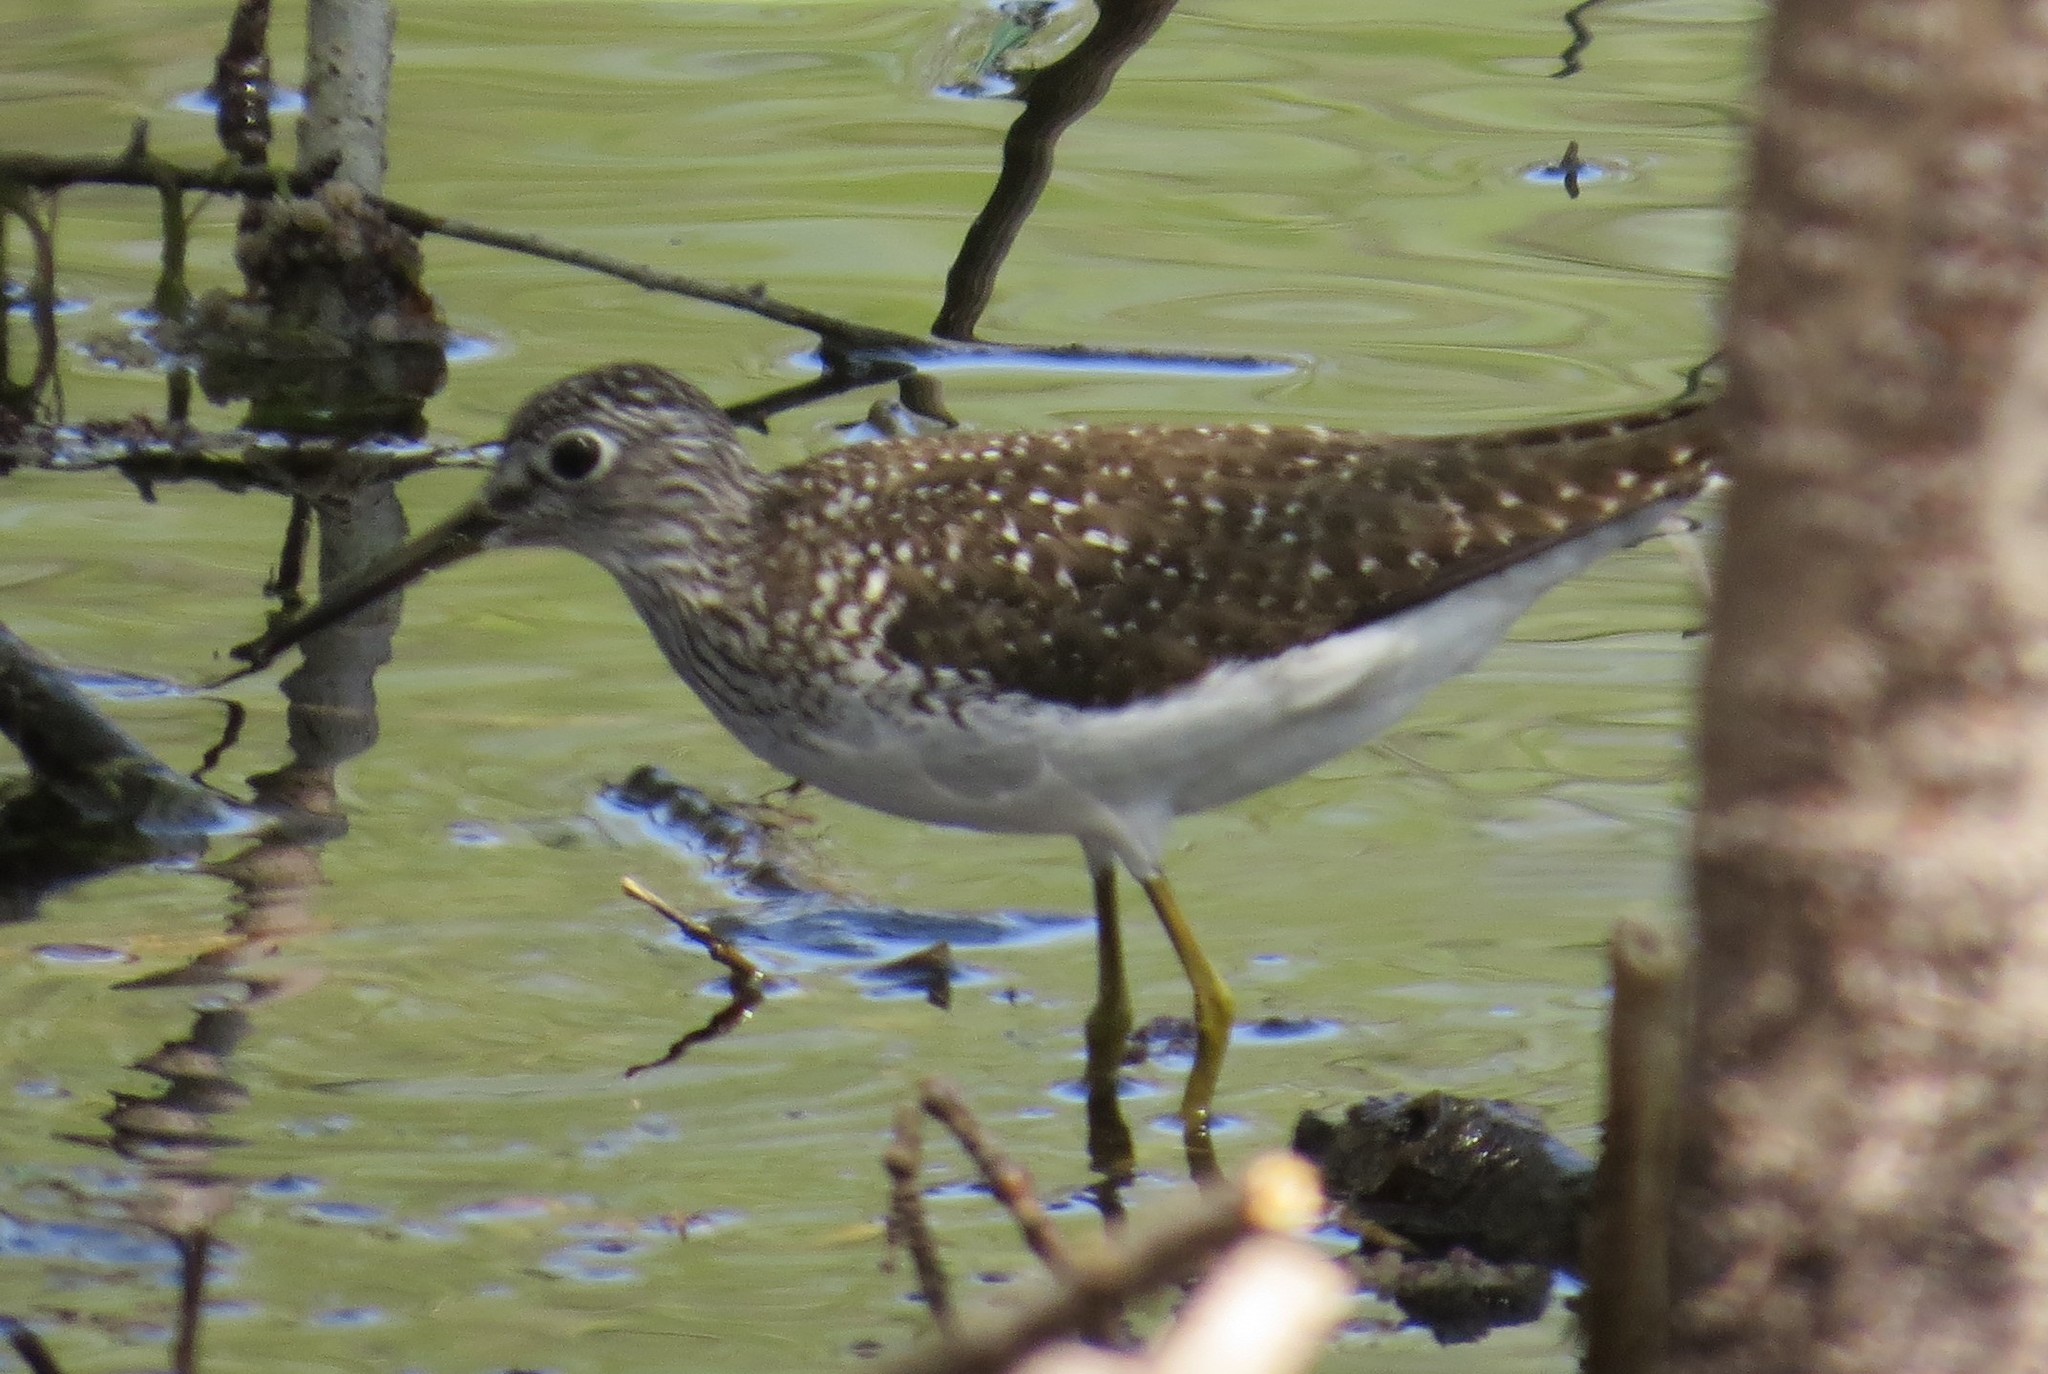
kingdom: Animalia
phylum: Chordata
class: Aves
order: Charadriiformes
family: Scolopacidae
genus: Tringa
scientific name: Tringa solitaria
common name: Solitary sandpiper
